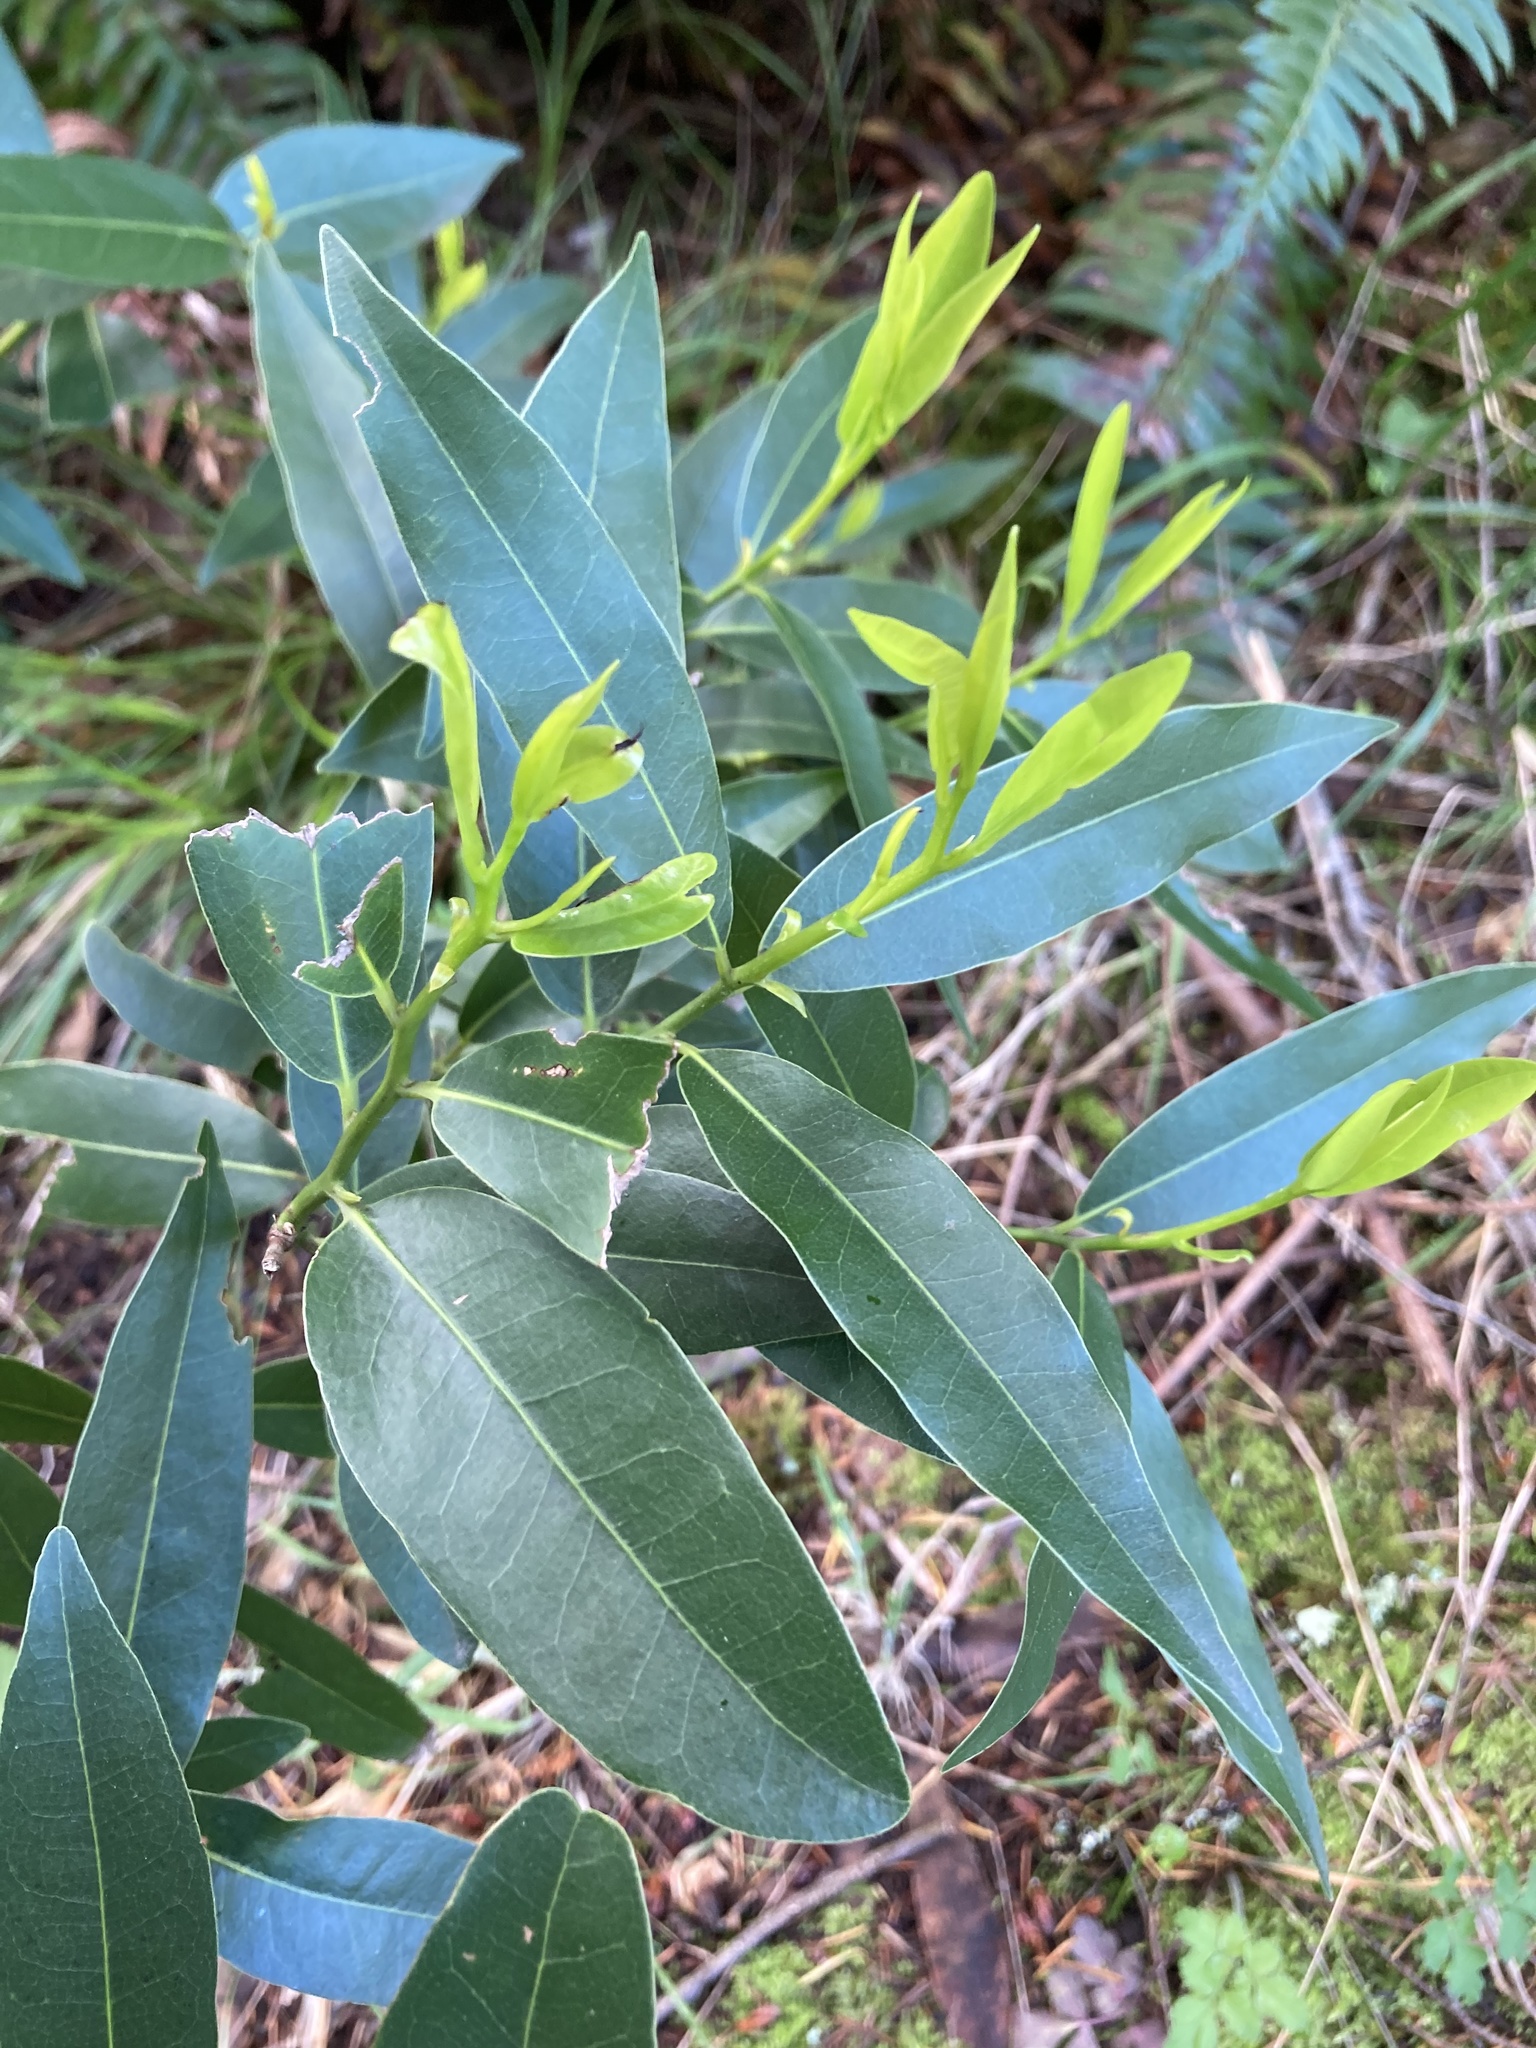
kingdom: Plantae
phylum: Tracheophyta
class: Magnoliopsida
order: Laurales
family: Lauraceae
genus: Umbellularia
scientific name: Umbellularia californica
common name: California bay
